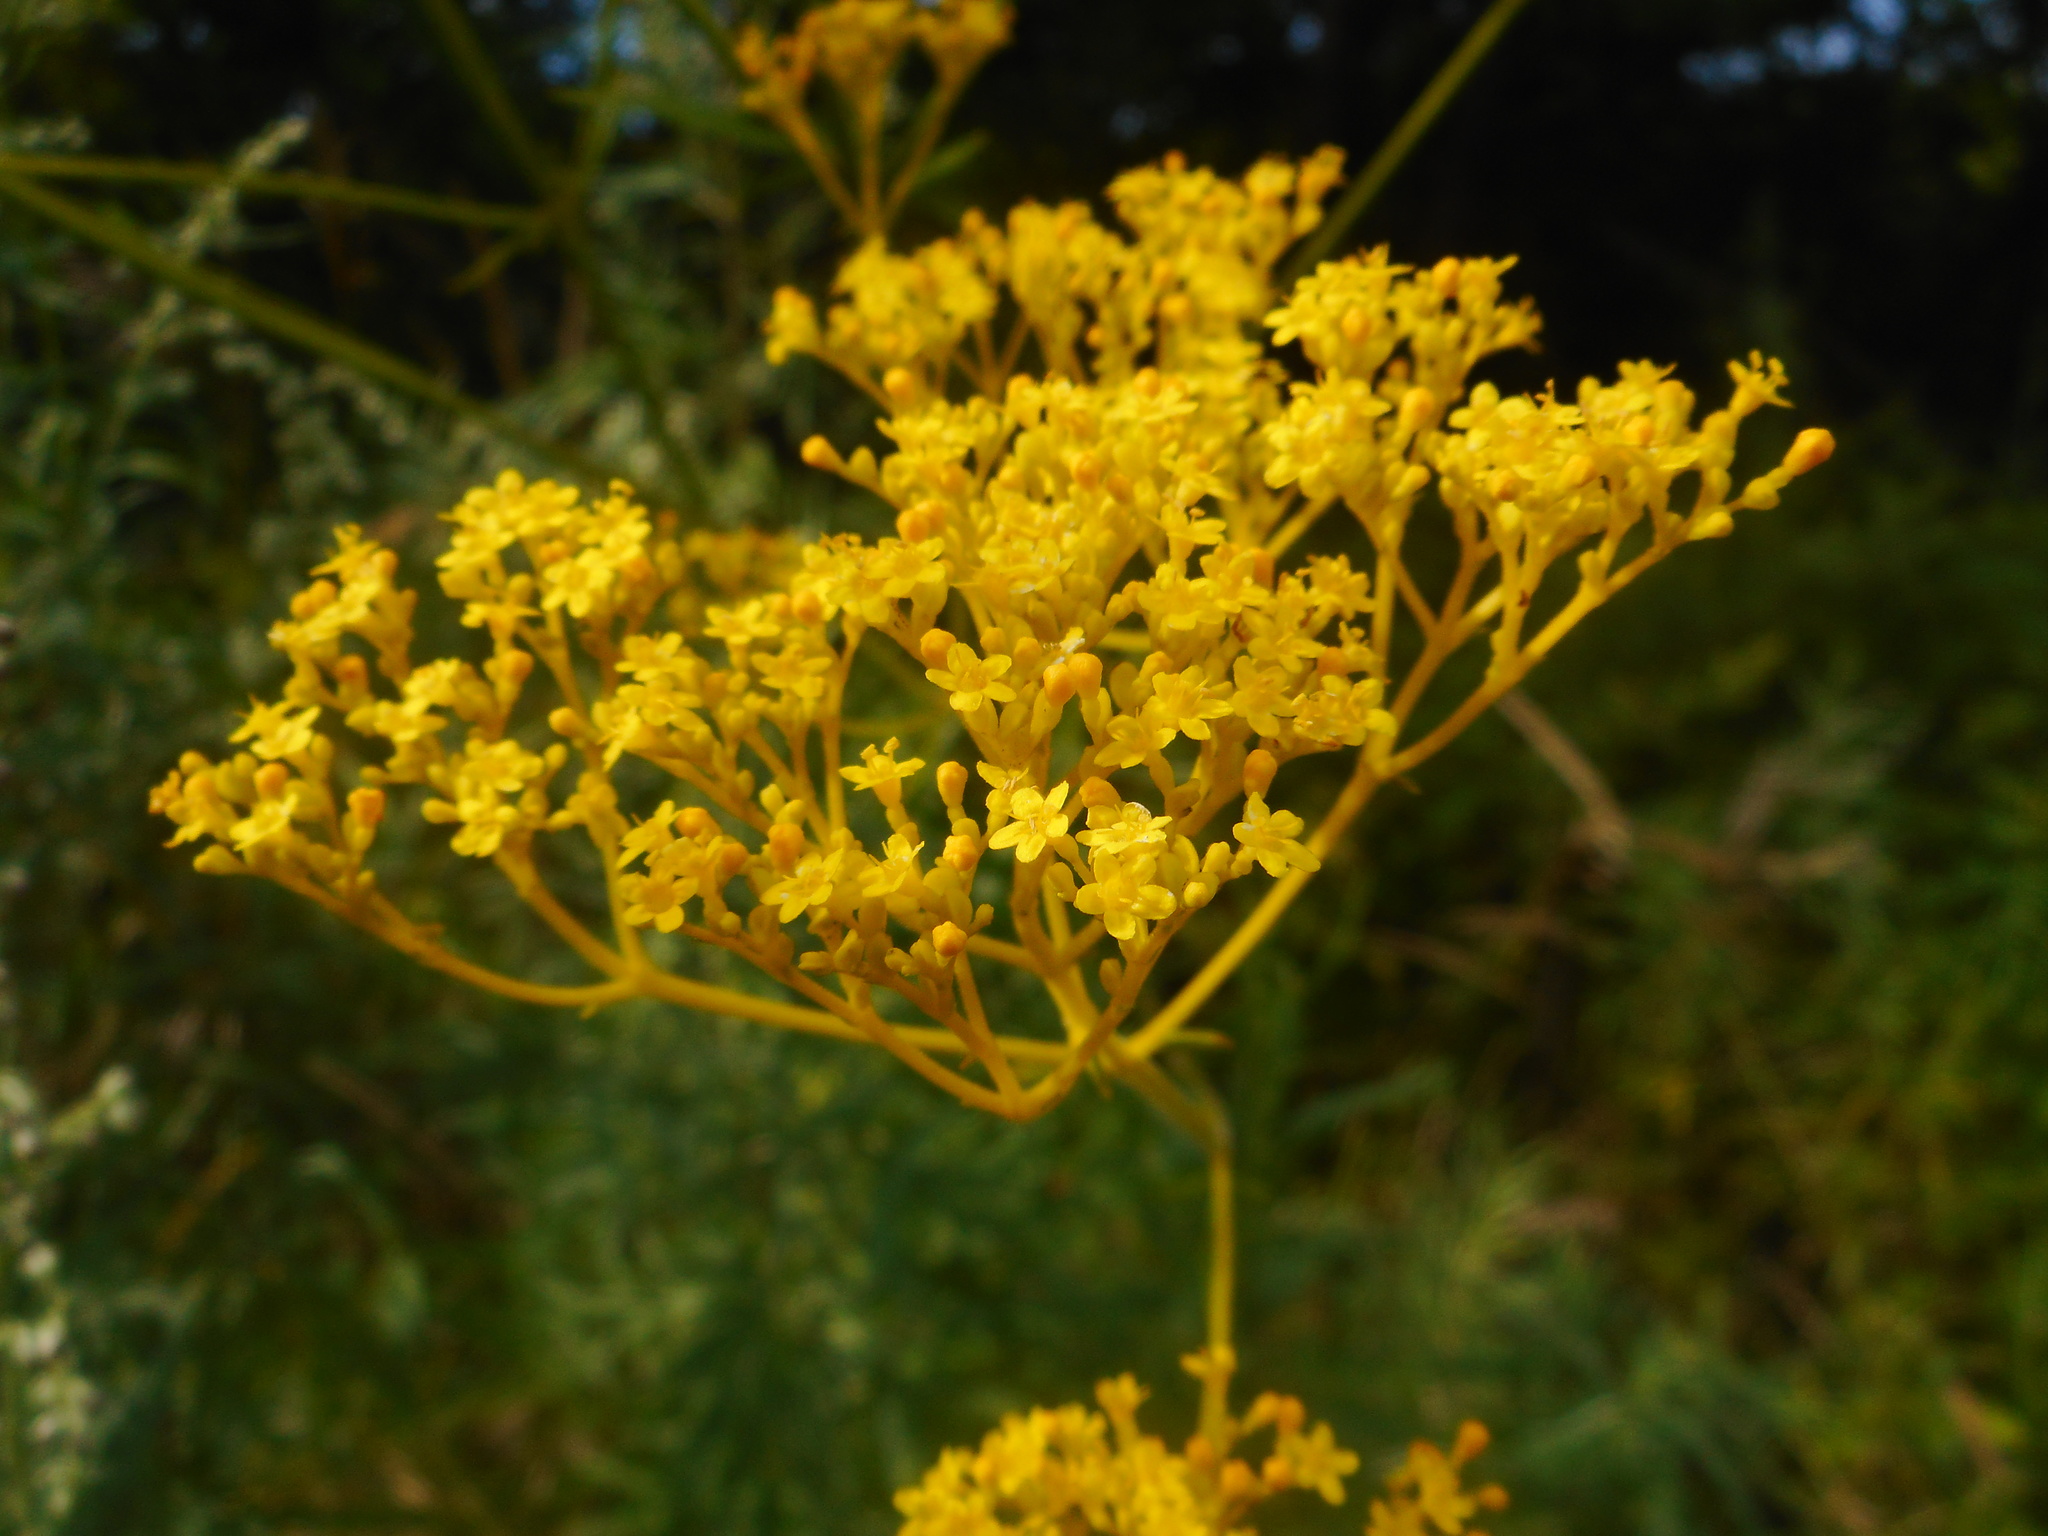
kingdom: Plantae
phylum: Tracheophyta
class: Magnoliopsida
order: Dipsacales
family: Caprifoliaceae
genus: Patrinia
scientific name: Patrinia scabiosifolia
